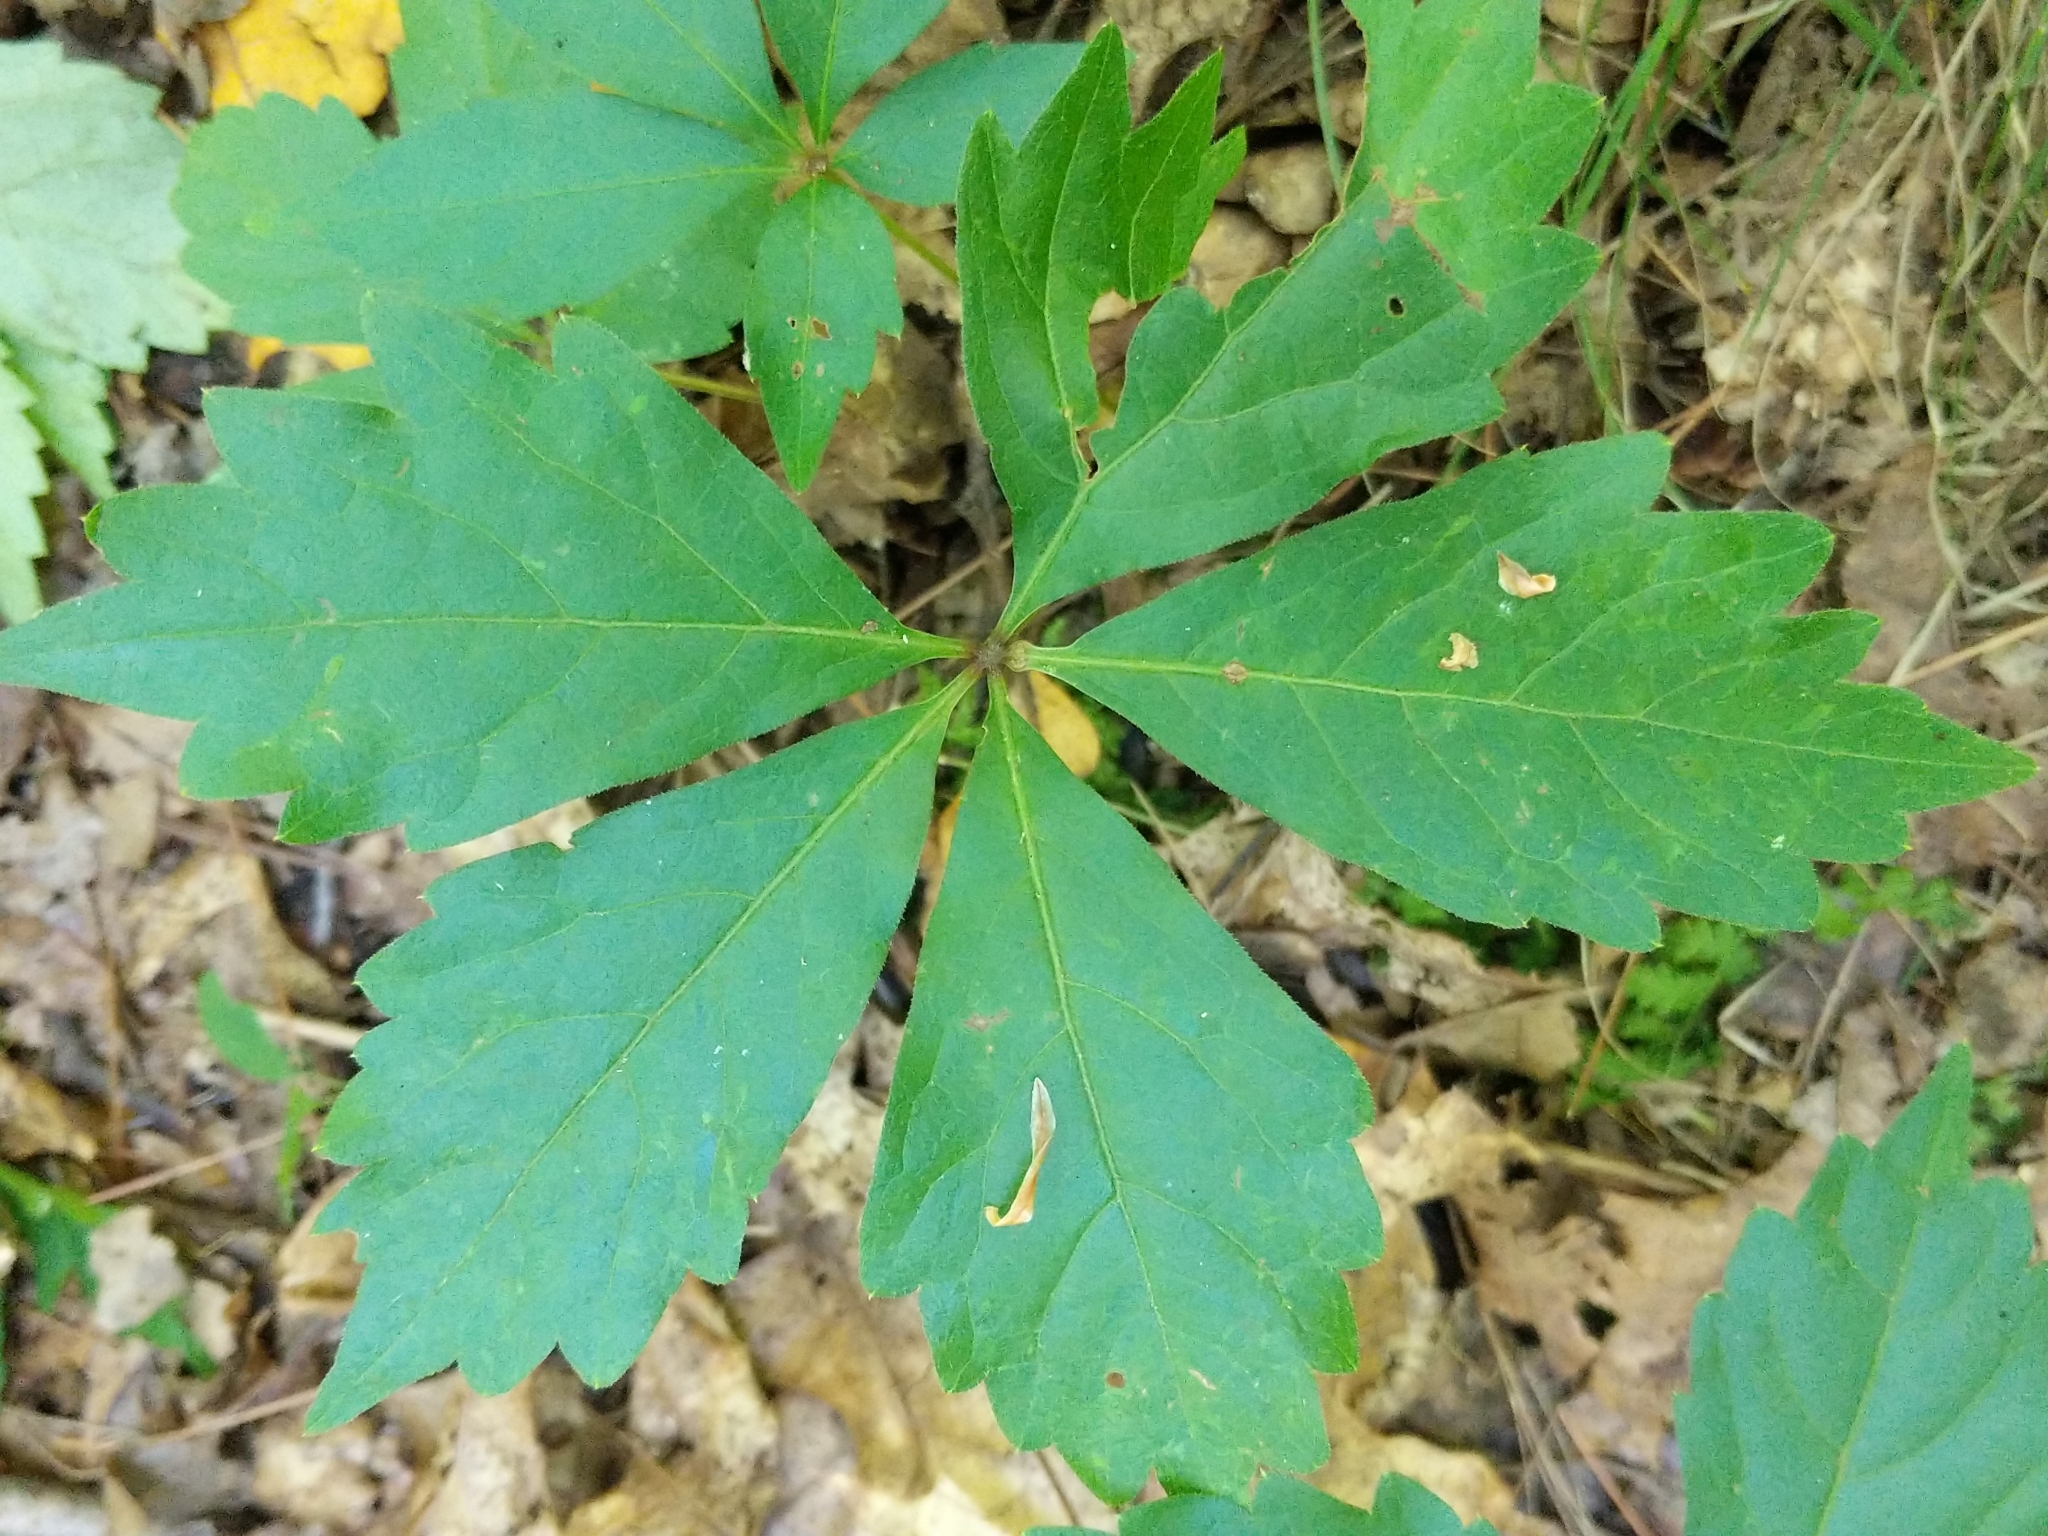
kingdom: Plantae
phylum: Tracheophyta
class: Magnoliopsida
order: Vitales
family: Vitaceae
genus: Parthenocissus
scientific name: Parthenocissus quinquefolia
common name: Virginia-creeper
